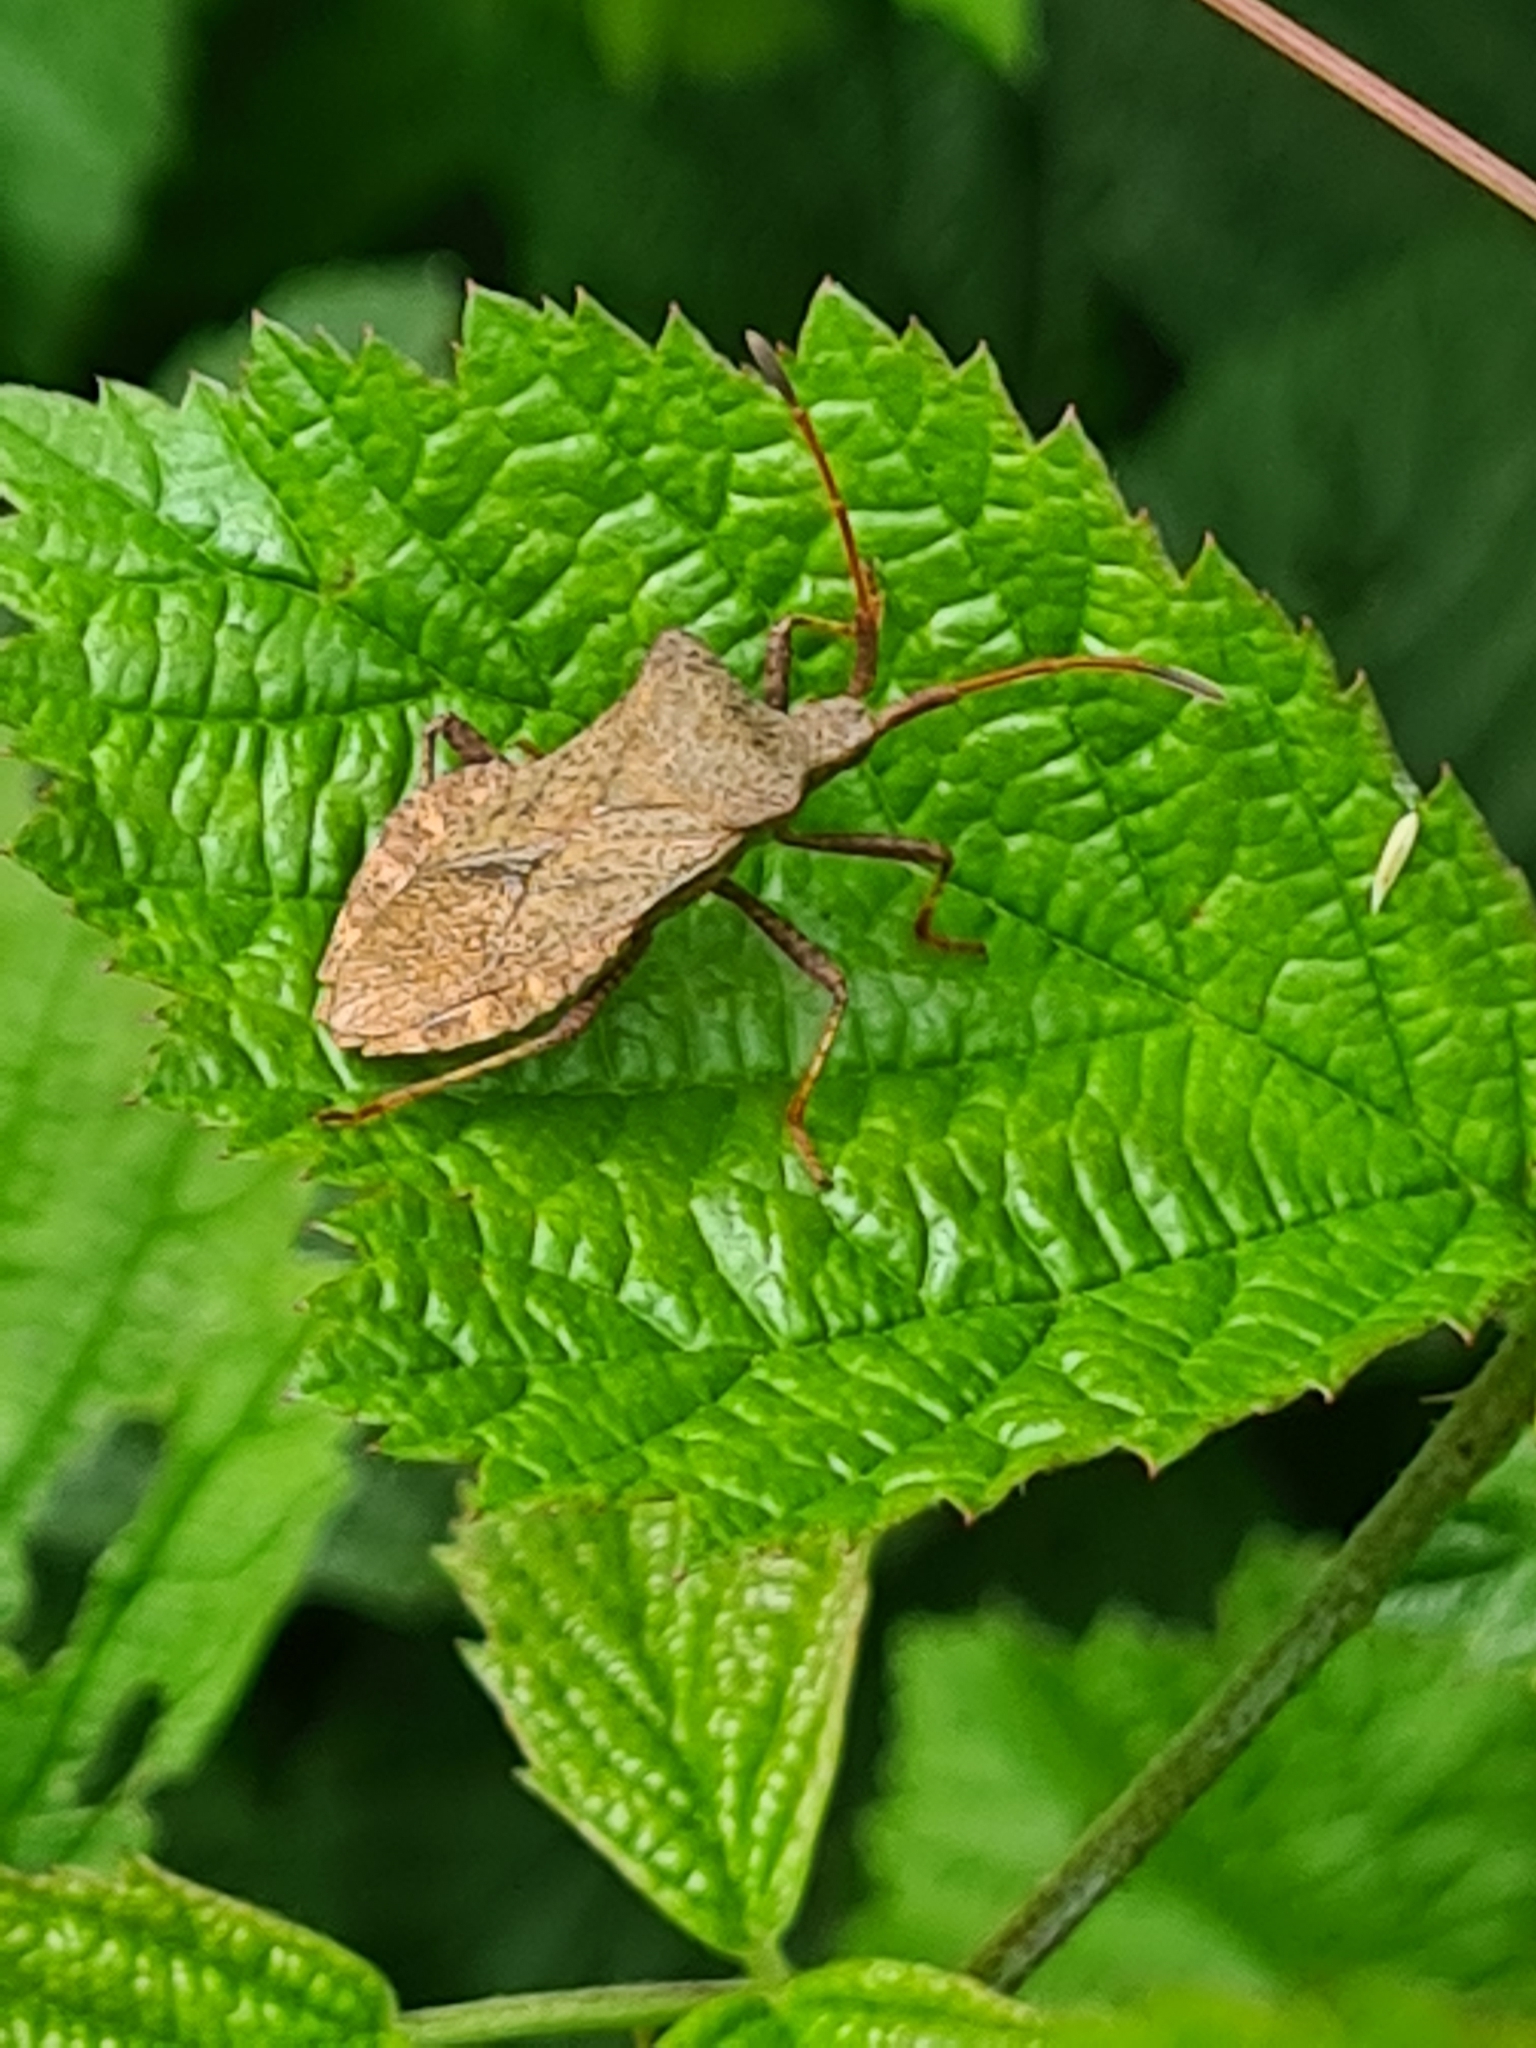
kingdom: Animalia
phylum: Arthropoda
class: Insecta
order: Hemiptera
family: Coreidae
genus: Coreus
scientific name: Coreus marginatus
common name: Dock bug
